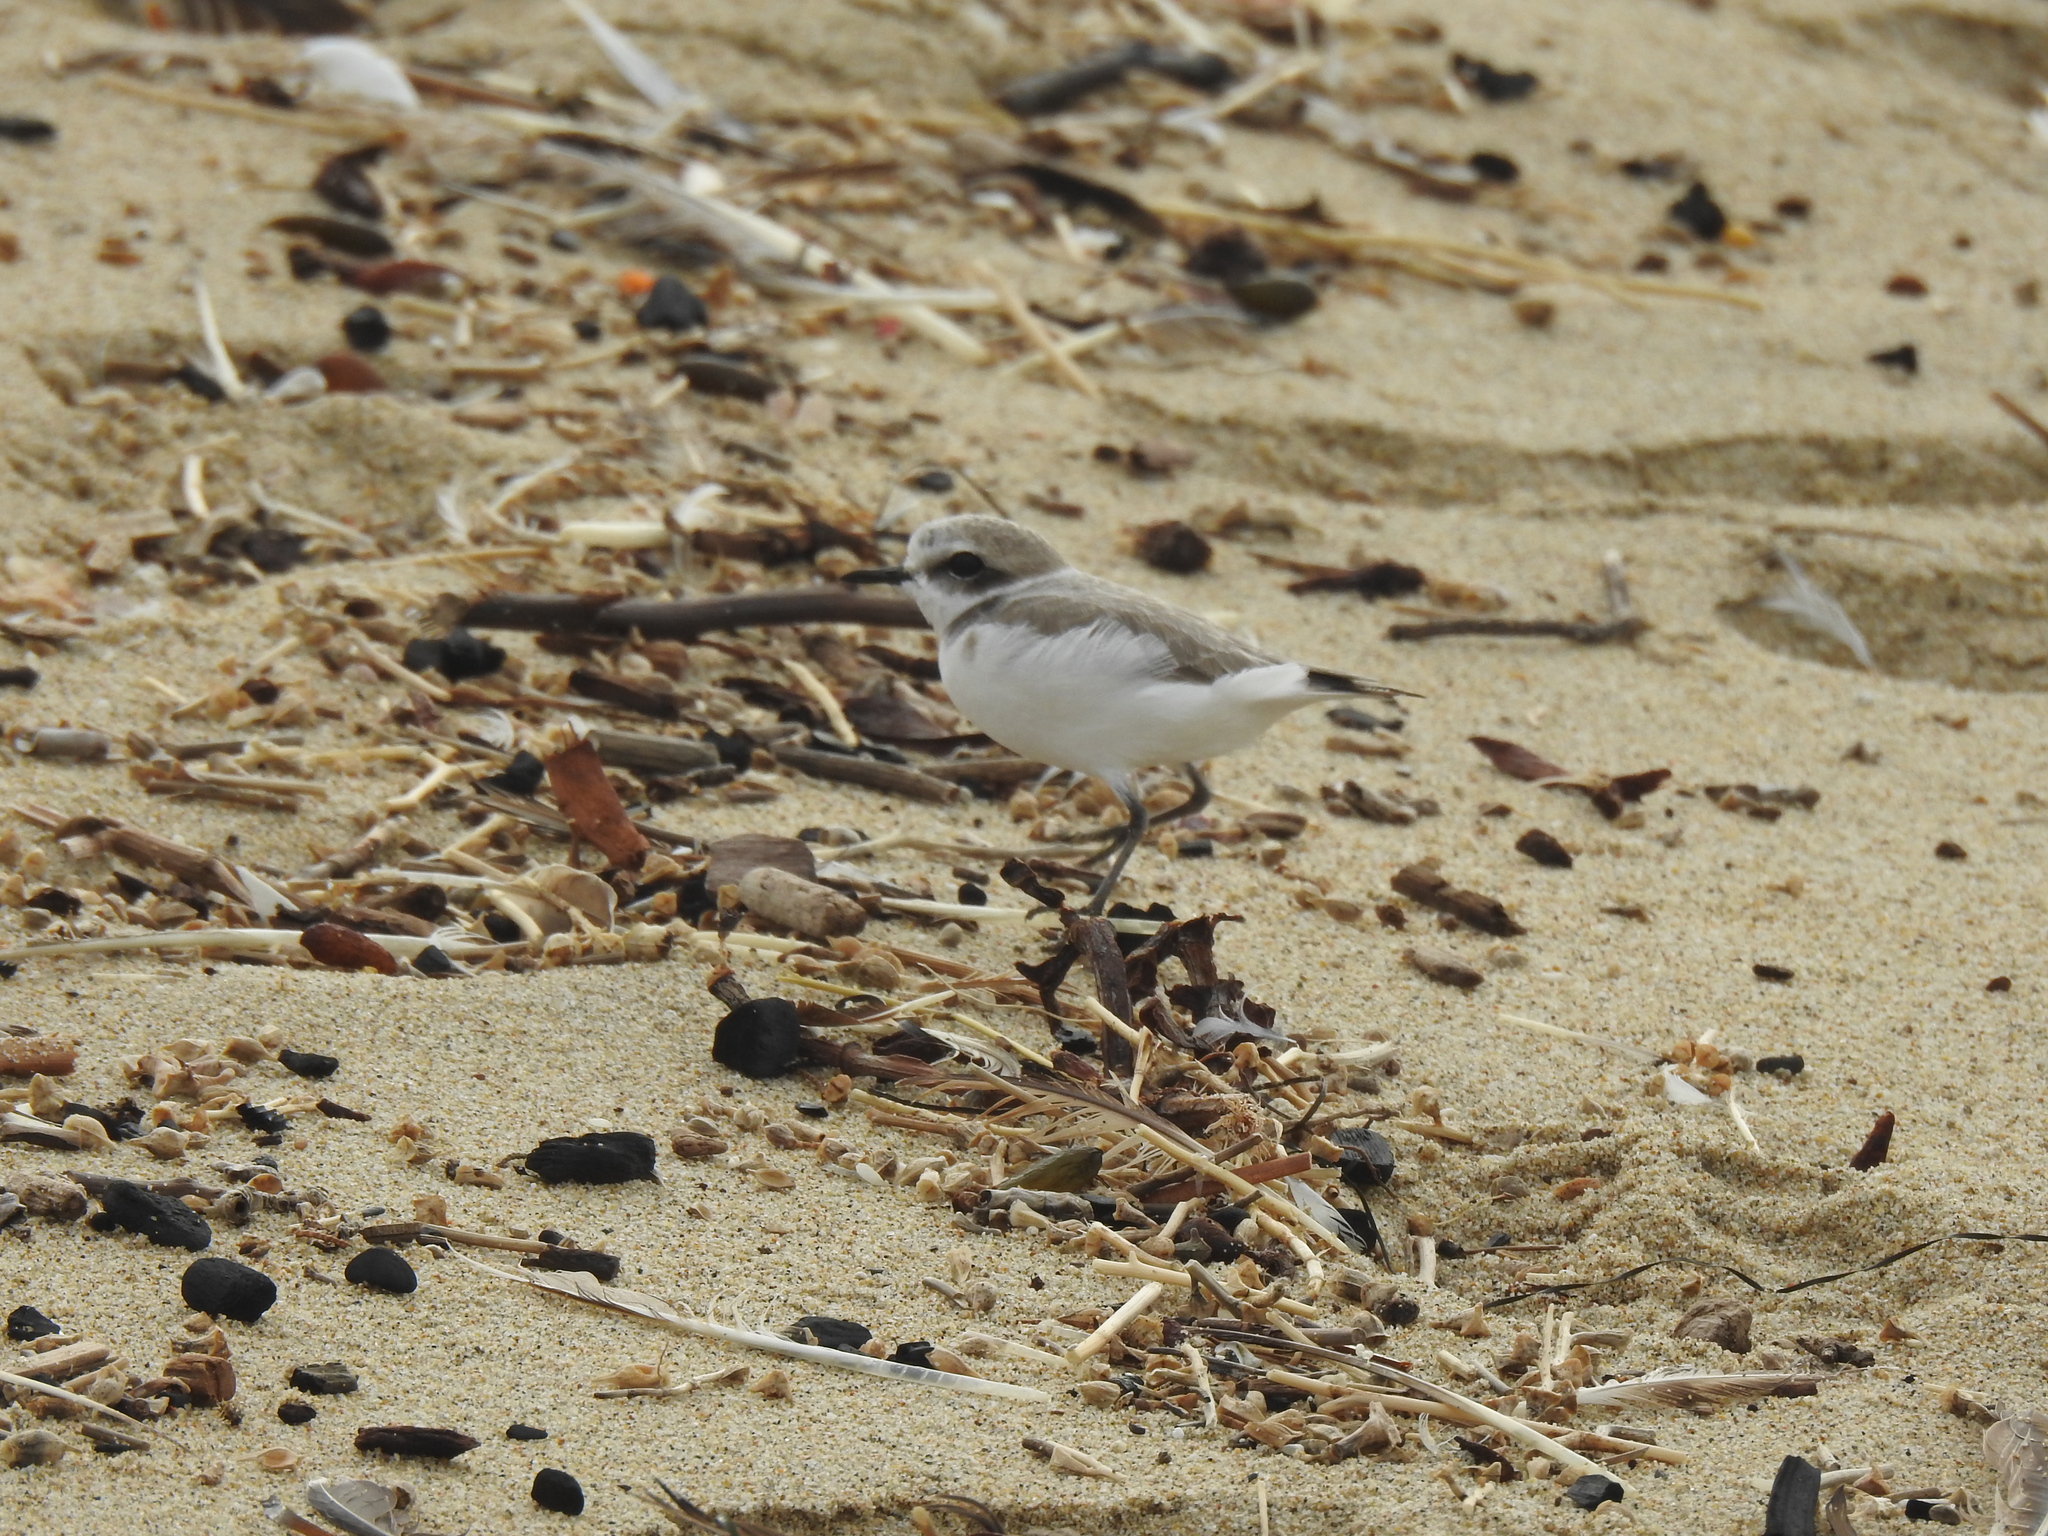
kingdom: Animalia
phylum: Chordata
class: Aves
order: Charadriiformes
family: Charadriidae
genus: Anarhynchus
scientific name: Anarhynchus
